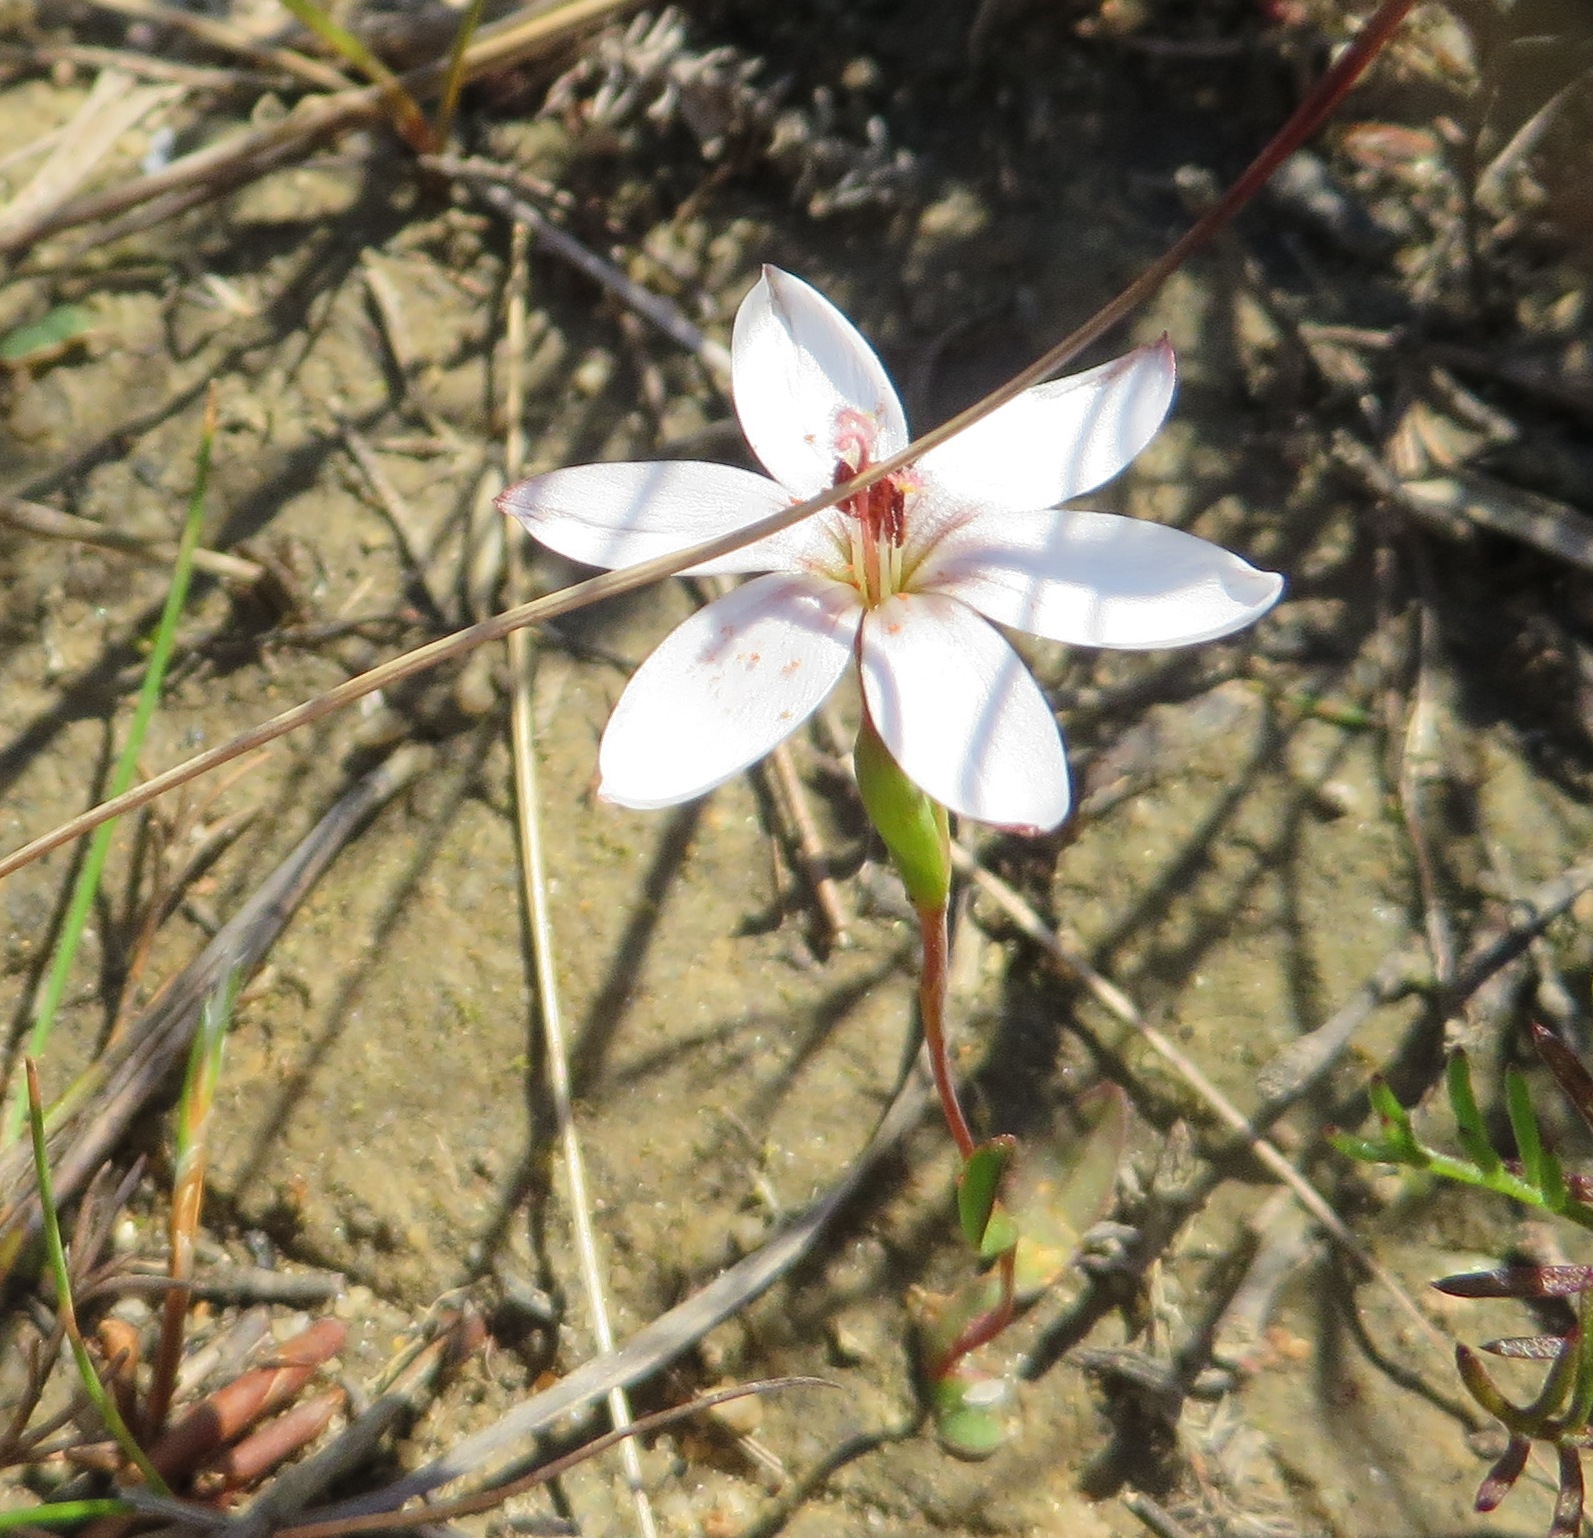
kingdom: Plantae
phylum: Tracheophyta
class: Liliopsida
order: Asparagales
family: Iridaceae
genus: Geissorhiza
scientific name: Geissorhiza ovata
